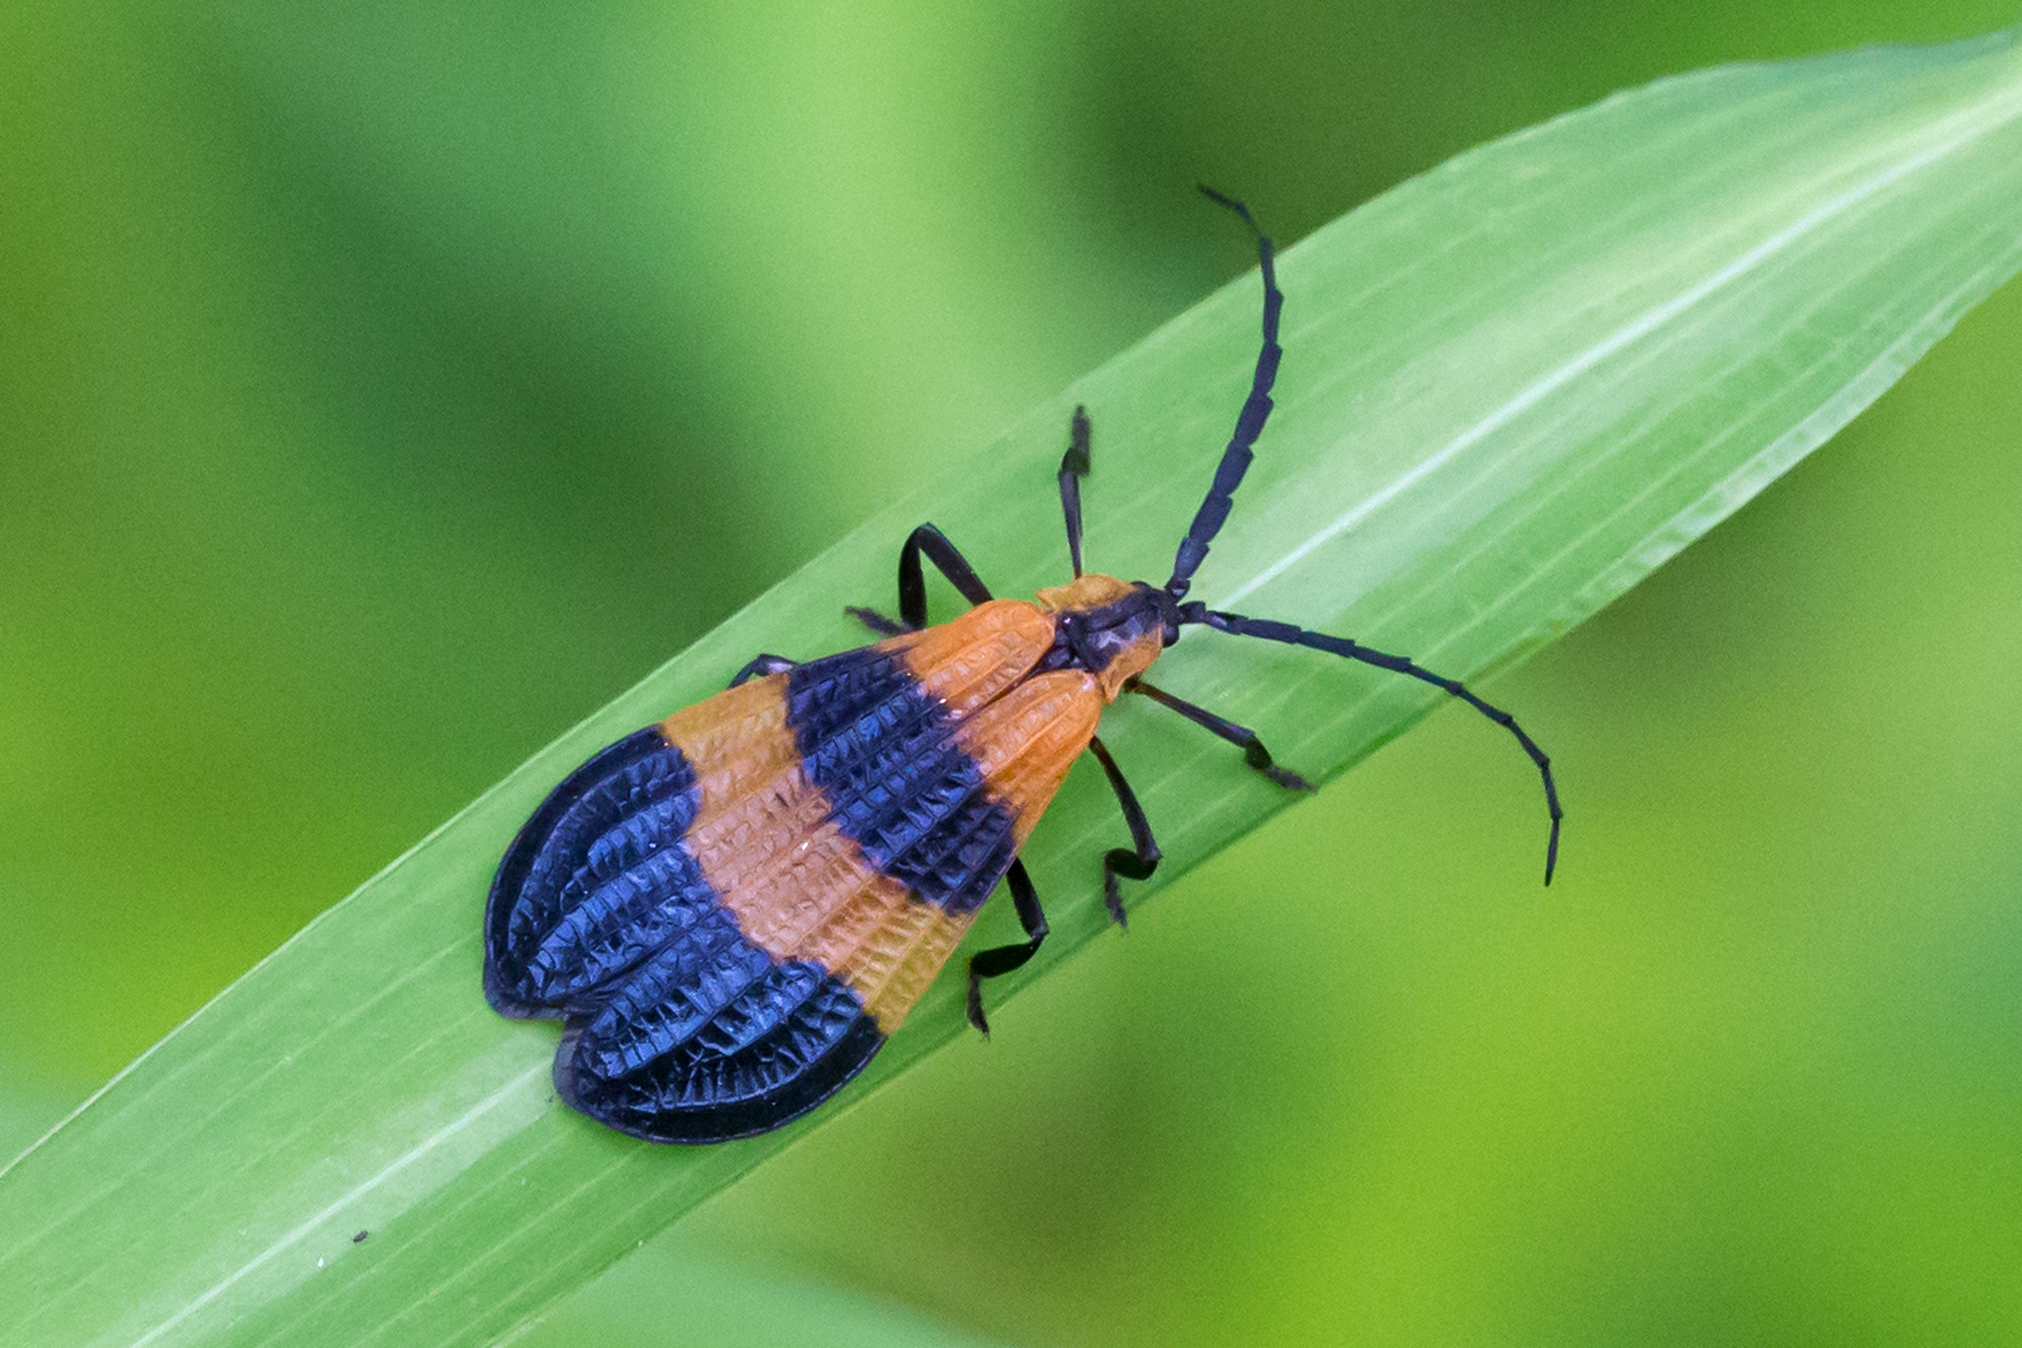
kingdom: Animalia
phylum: Arthropoda
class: Insecta
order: Coleoptera
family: Lycidae
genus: Calopteron
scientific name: Calopteron terminale
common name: End band net-winged beetle
